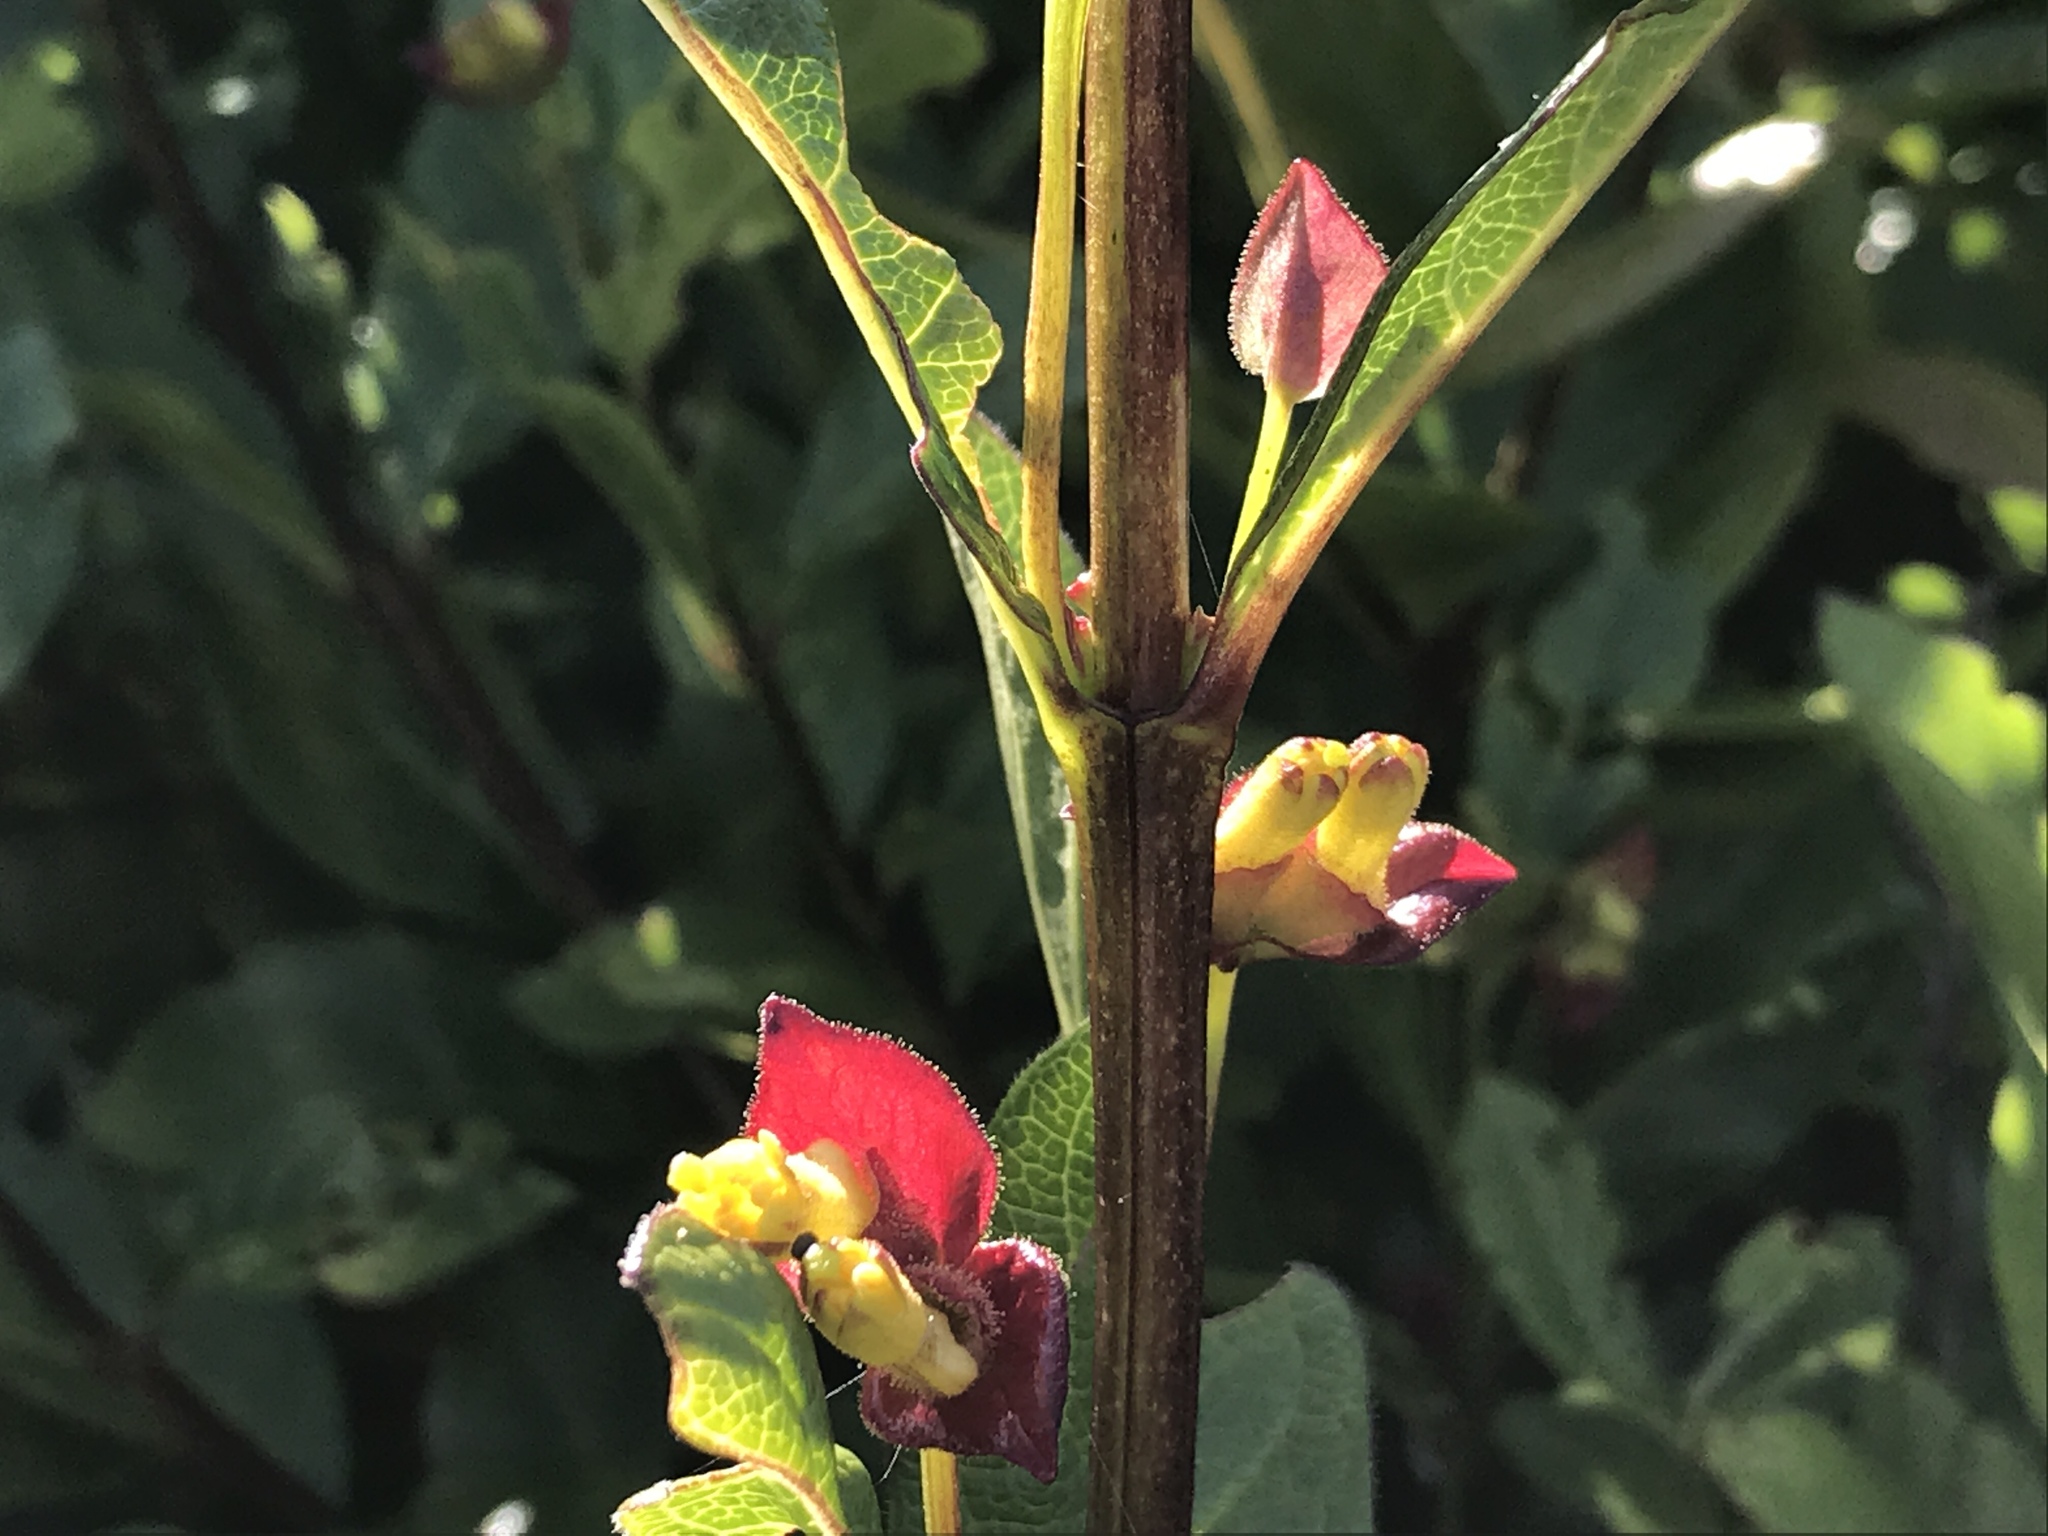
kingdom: Plantae
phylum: Tracheophyta
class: Magnoliopsida
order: Dipsacales
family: Caprifoliaceae
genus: Lonicera
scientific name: Lonicera involucrata
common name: Californian honeysuckle
